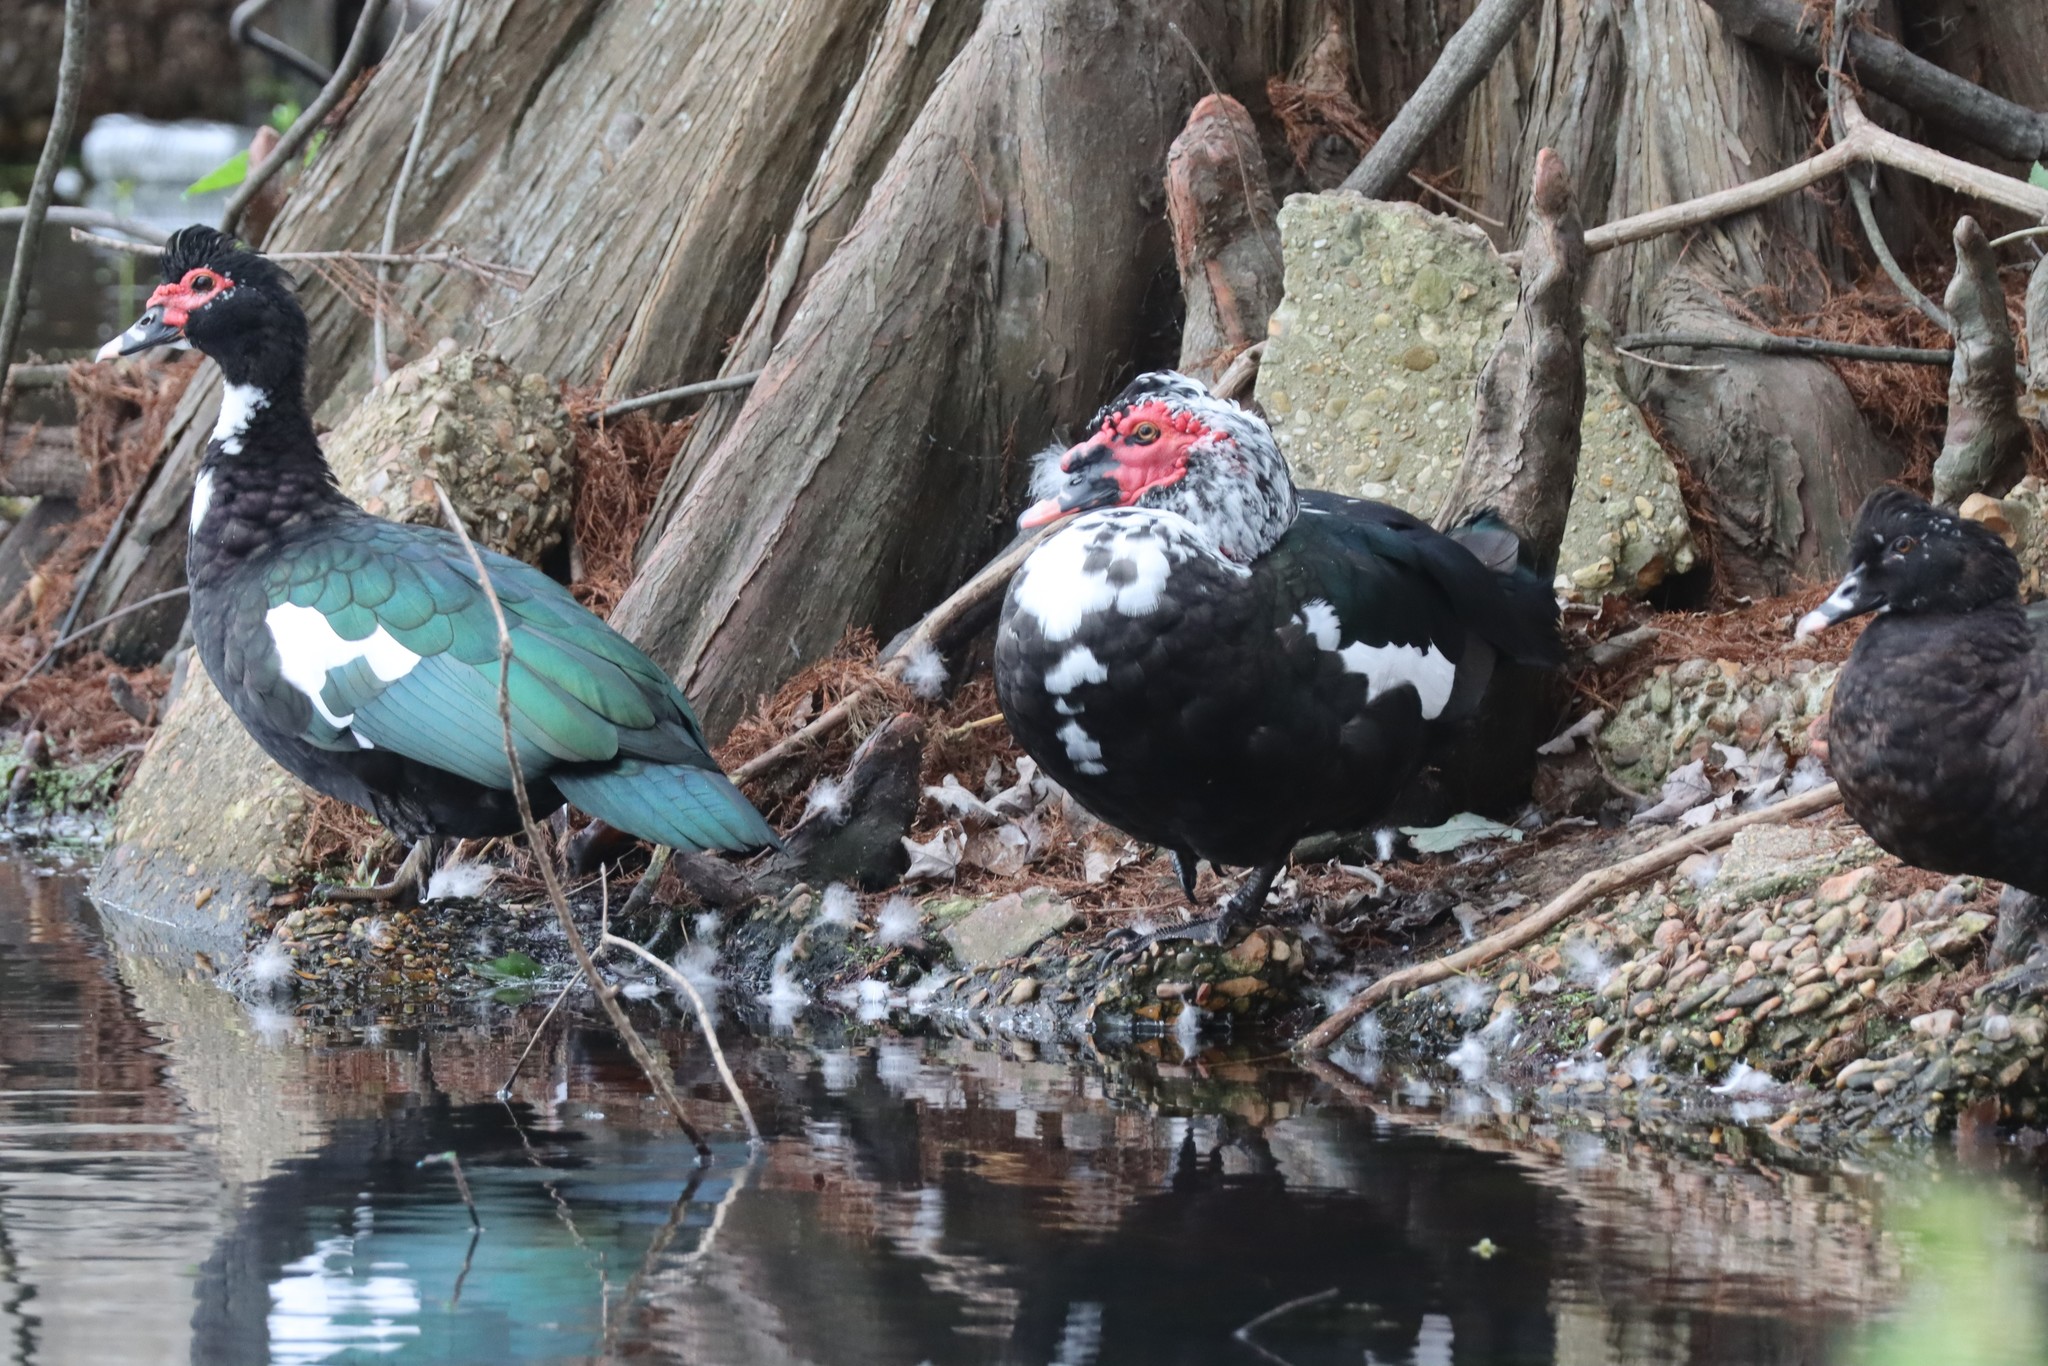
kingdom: Animalia
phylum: Chordata
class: Aves
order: Anseriformes
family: Anatidae
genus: Cairina
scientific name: Cairina moschata
